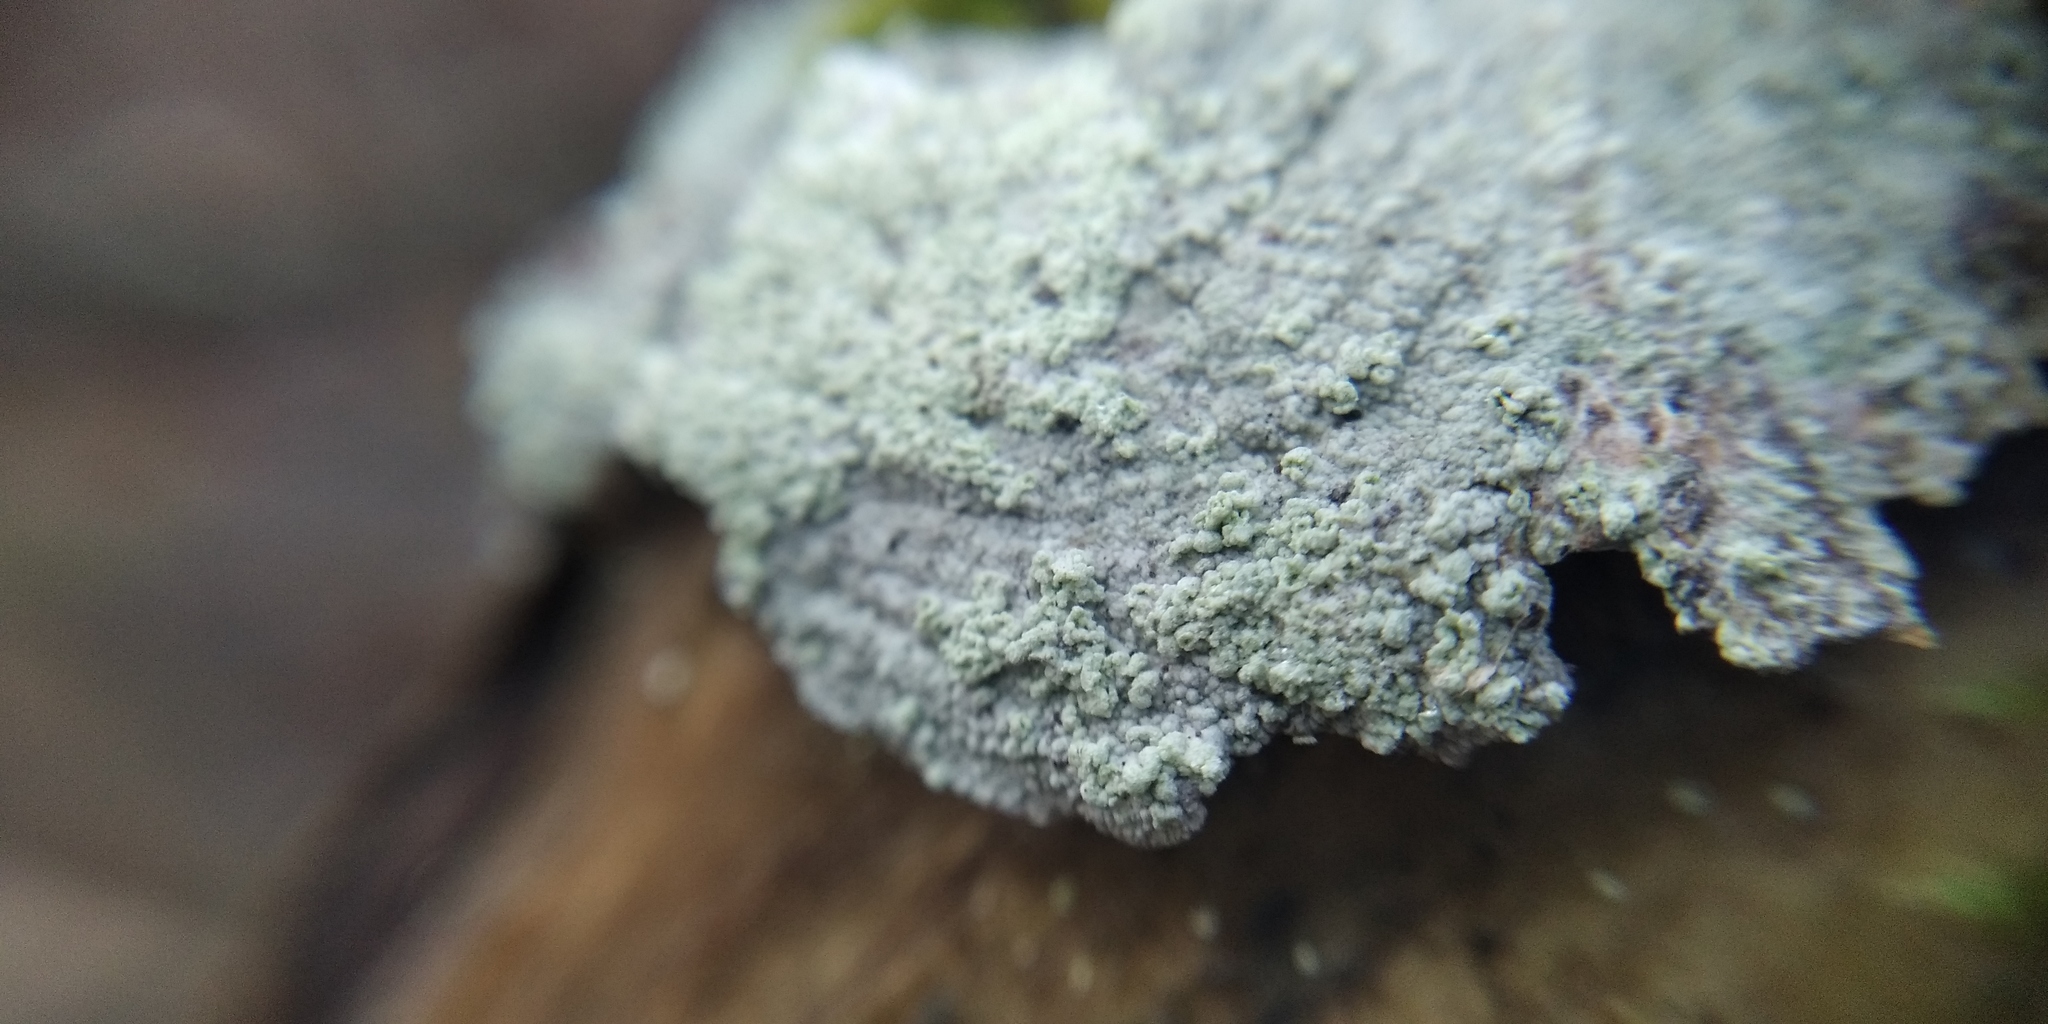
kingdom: Fungi
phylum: Ascomycota
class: Lecanoromycetes
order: Ostropales
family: Phlyctidaceae
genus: Phlyctis
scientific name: Phlyctis argena
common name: Whitewash lichen
